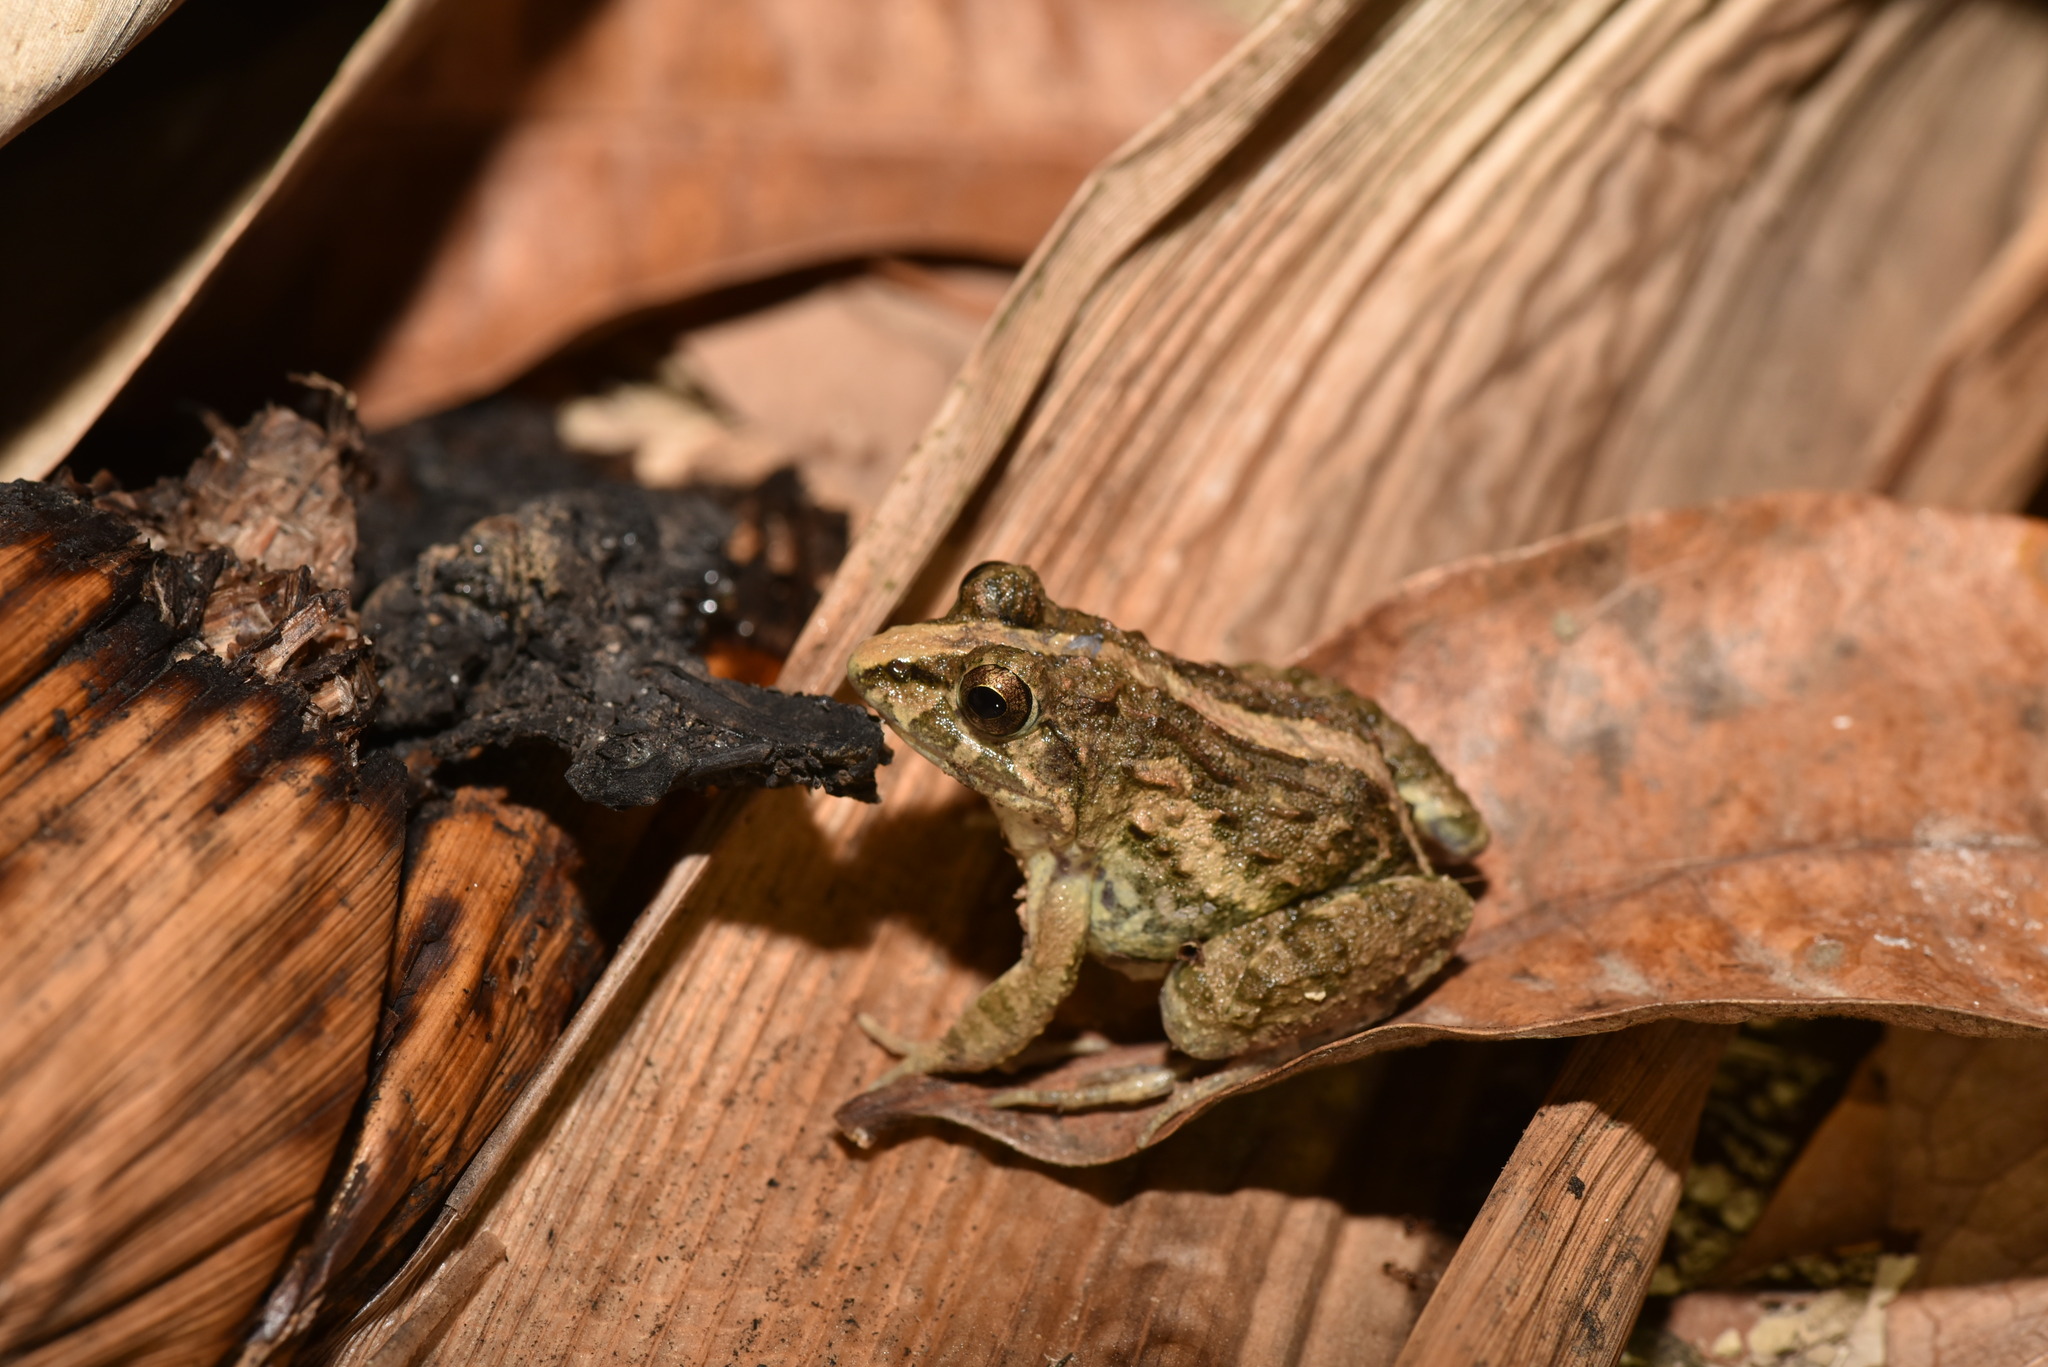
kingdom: Animalia
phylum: Chordata
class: Amphibia
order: Anura
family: Dicroglossidae
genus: Fejervarya
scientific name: Fejervarya limnocharis
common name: Asian grass frog/common pond frog/field frog/grass frog/indian rice frog
